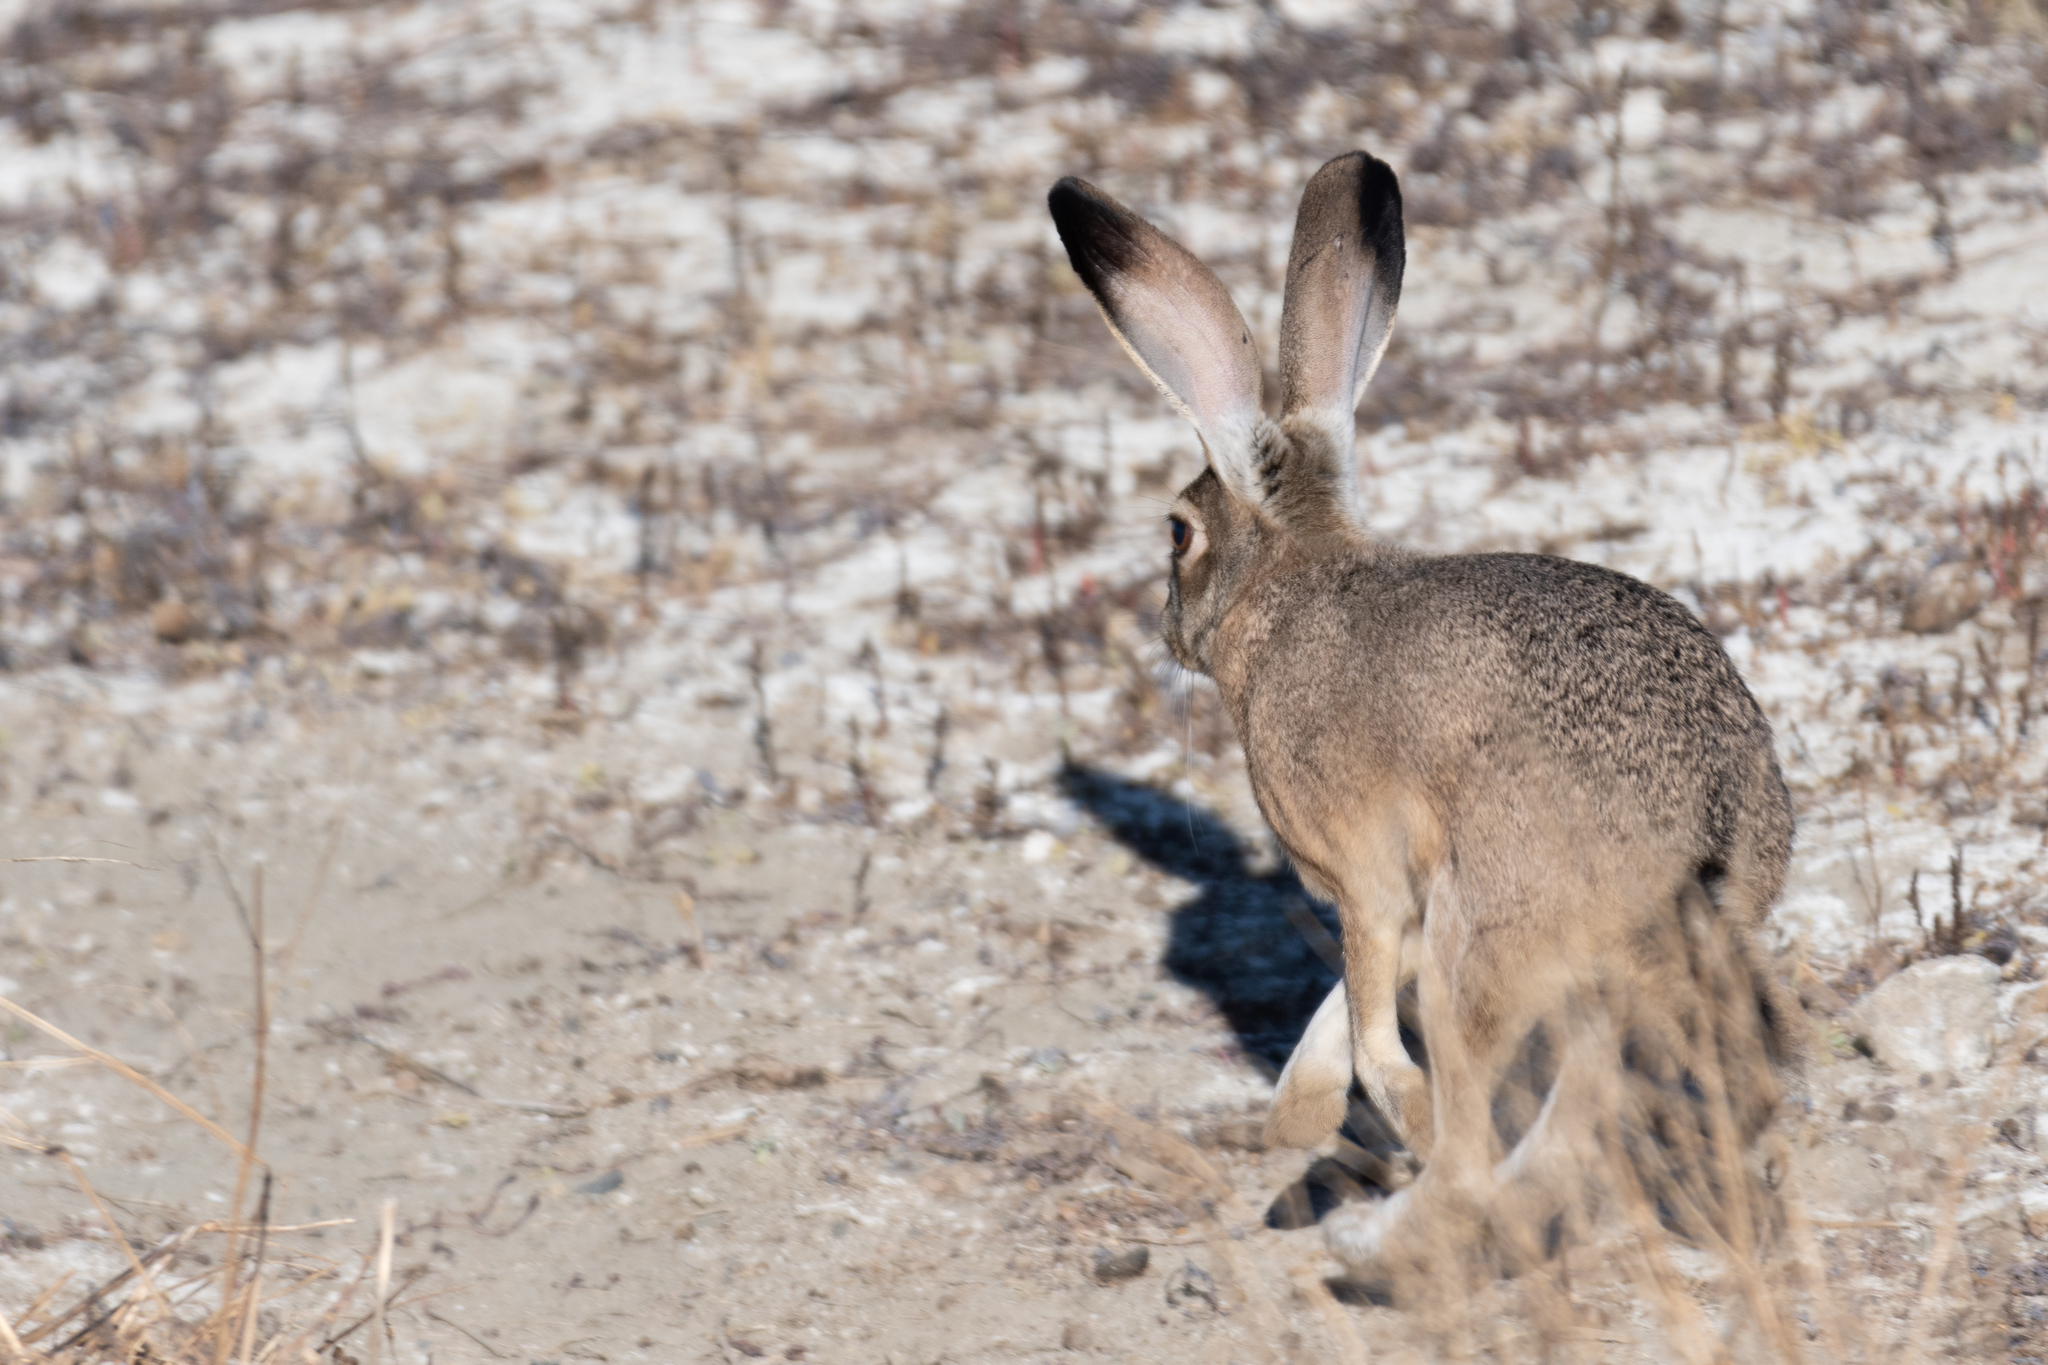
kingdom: Animalia
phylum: Chordata
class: Mammalia
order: Lagomorpha
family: Leporidae
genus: Lepus
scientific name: Lepus californicus
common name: Black-tailed jackrabbit
